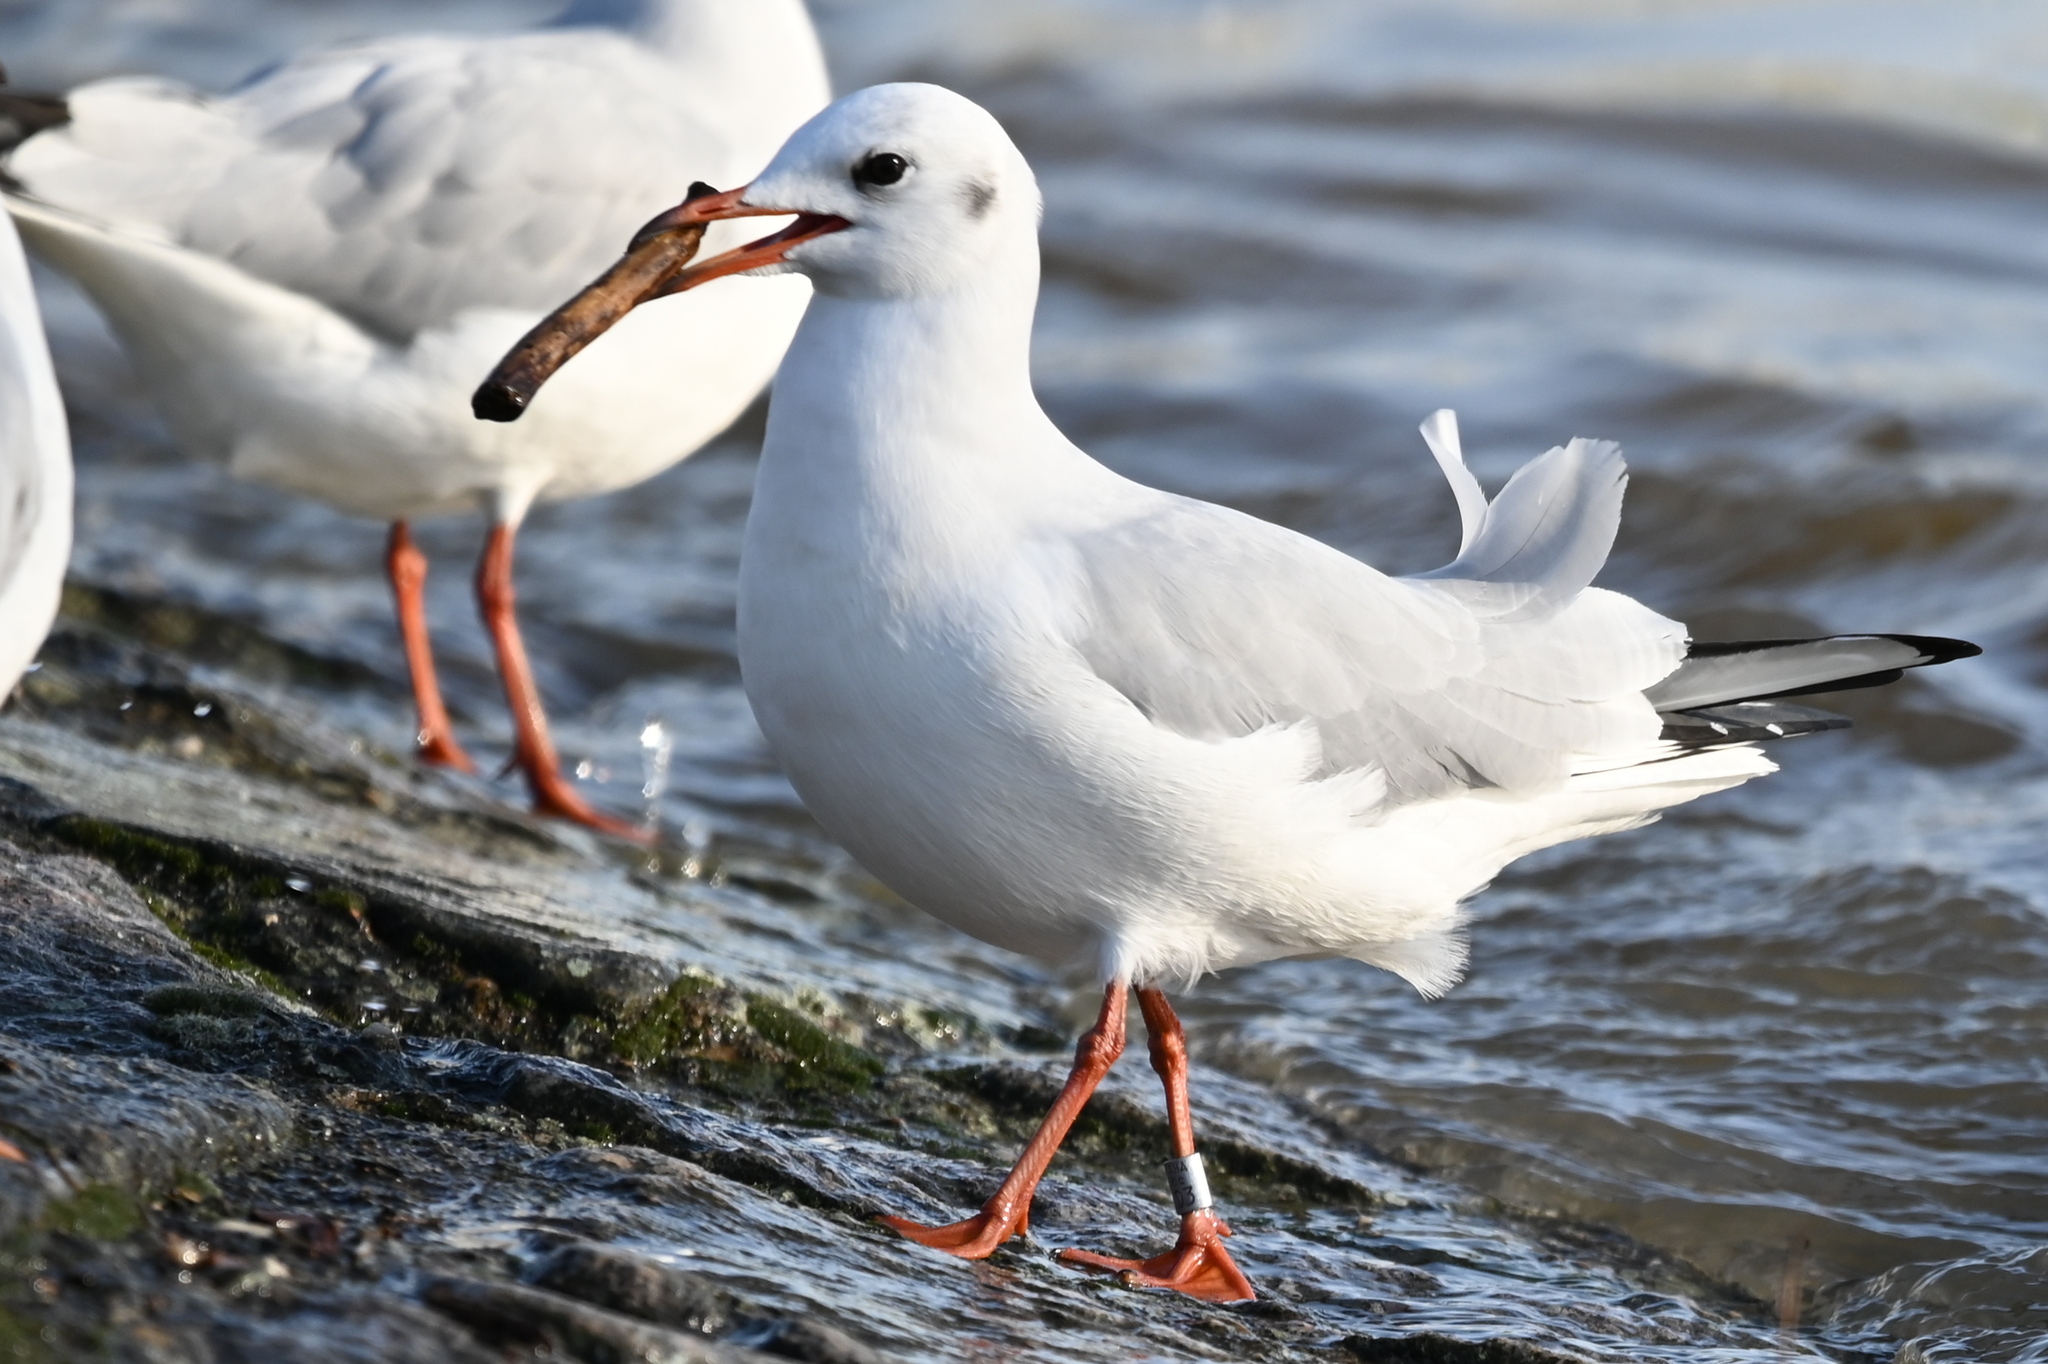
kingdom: Animalia
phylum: Chordata
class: Aves
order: Charadriiformes
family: Laridae
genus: Chroicocephalus
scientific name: Chroicocephalus ridibundus
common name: Black-headed gull
